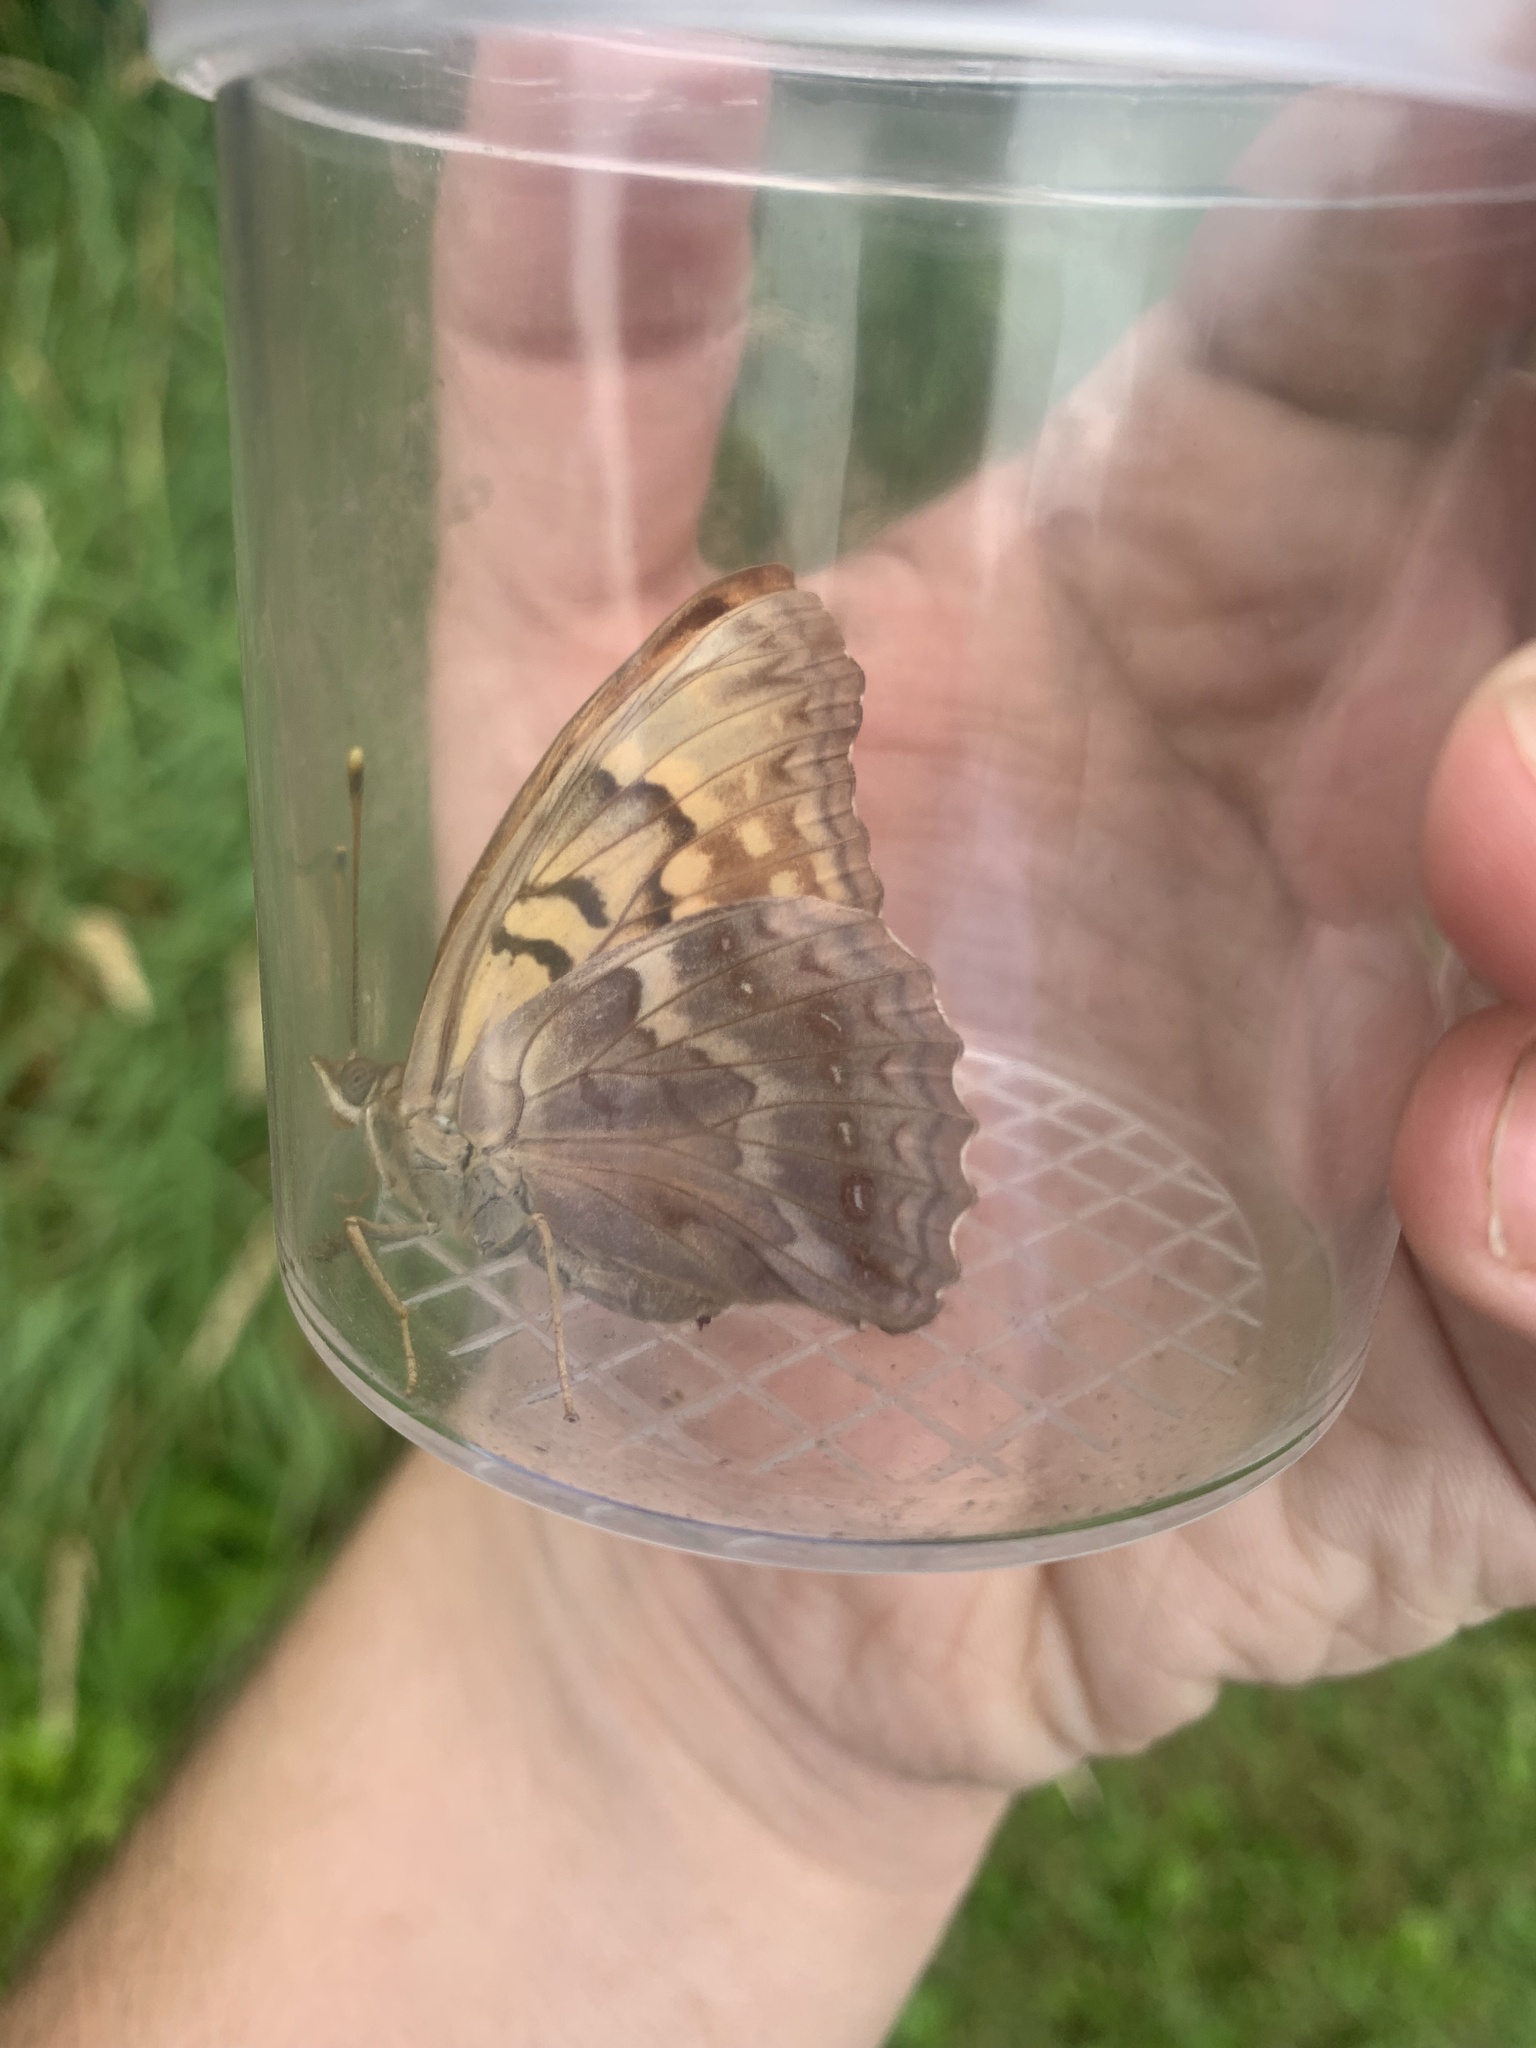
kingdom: Animalia
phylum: Arthropoda
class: Insecta
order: Lepidoptera
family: Nymphalidae
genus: Asterocampa
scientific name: Asterocampa clyton
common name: Tawny emperor
